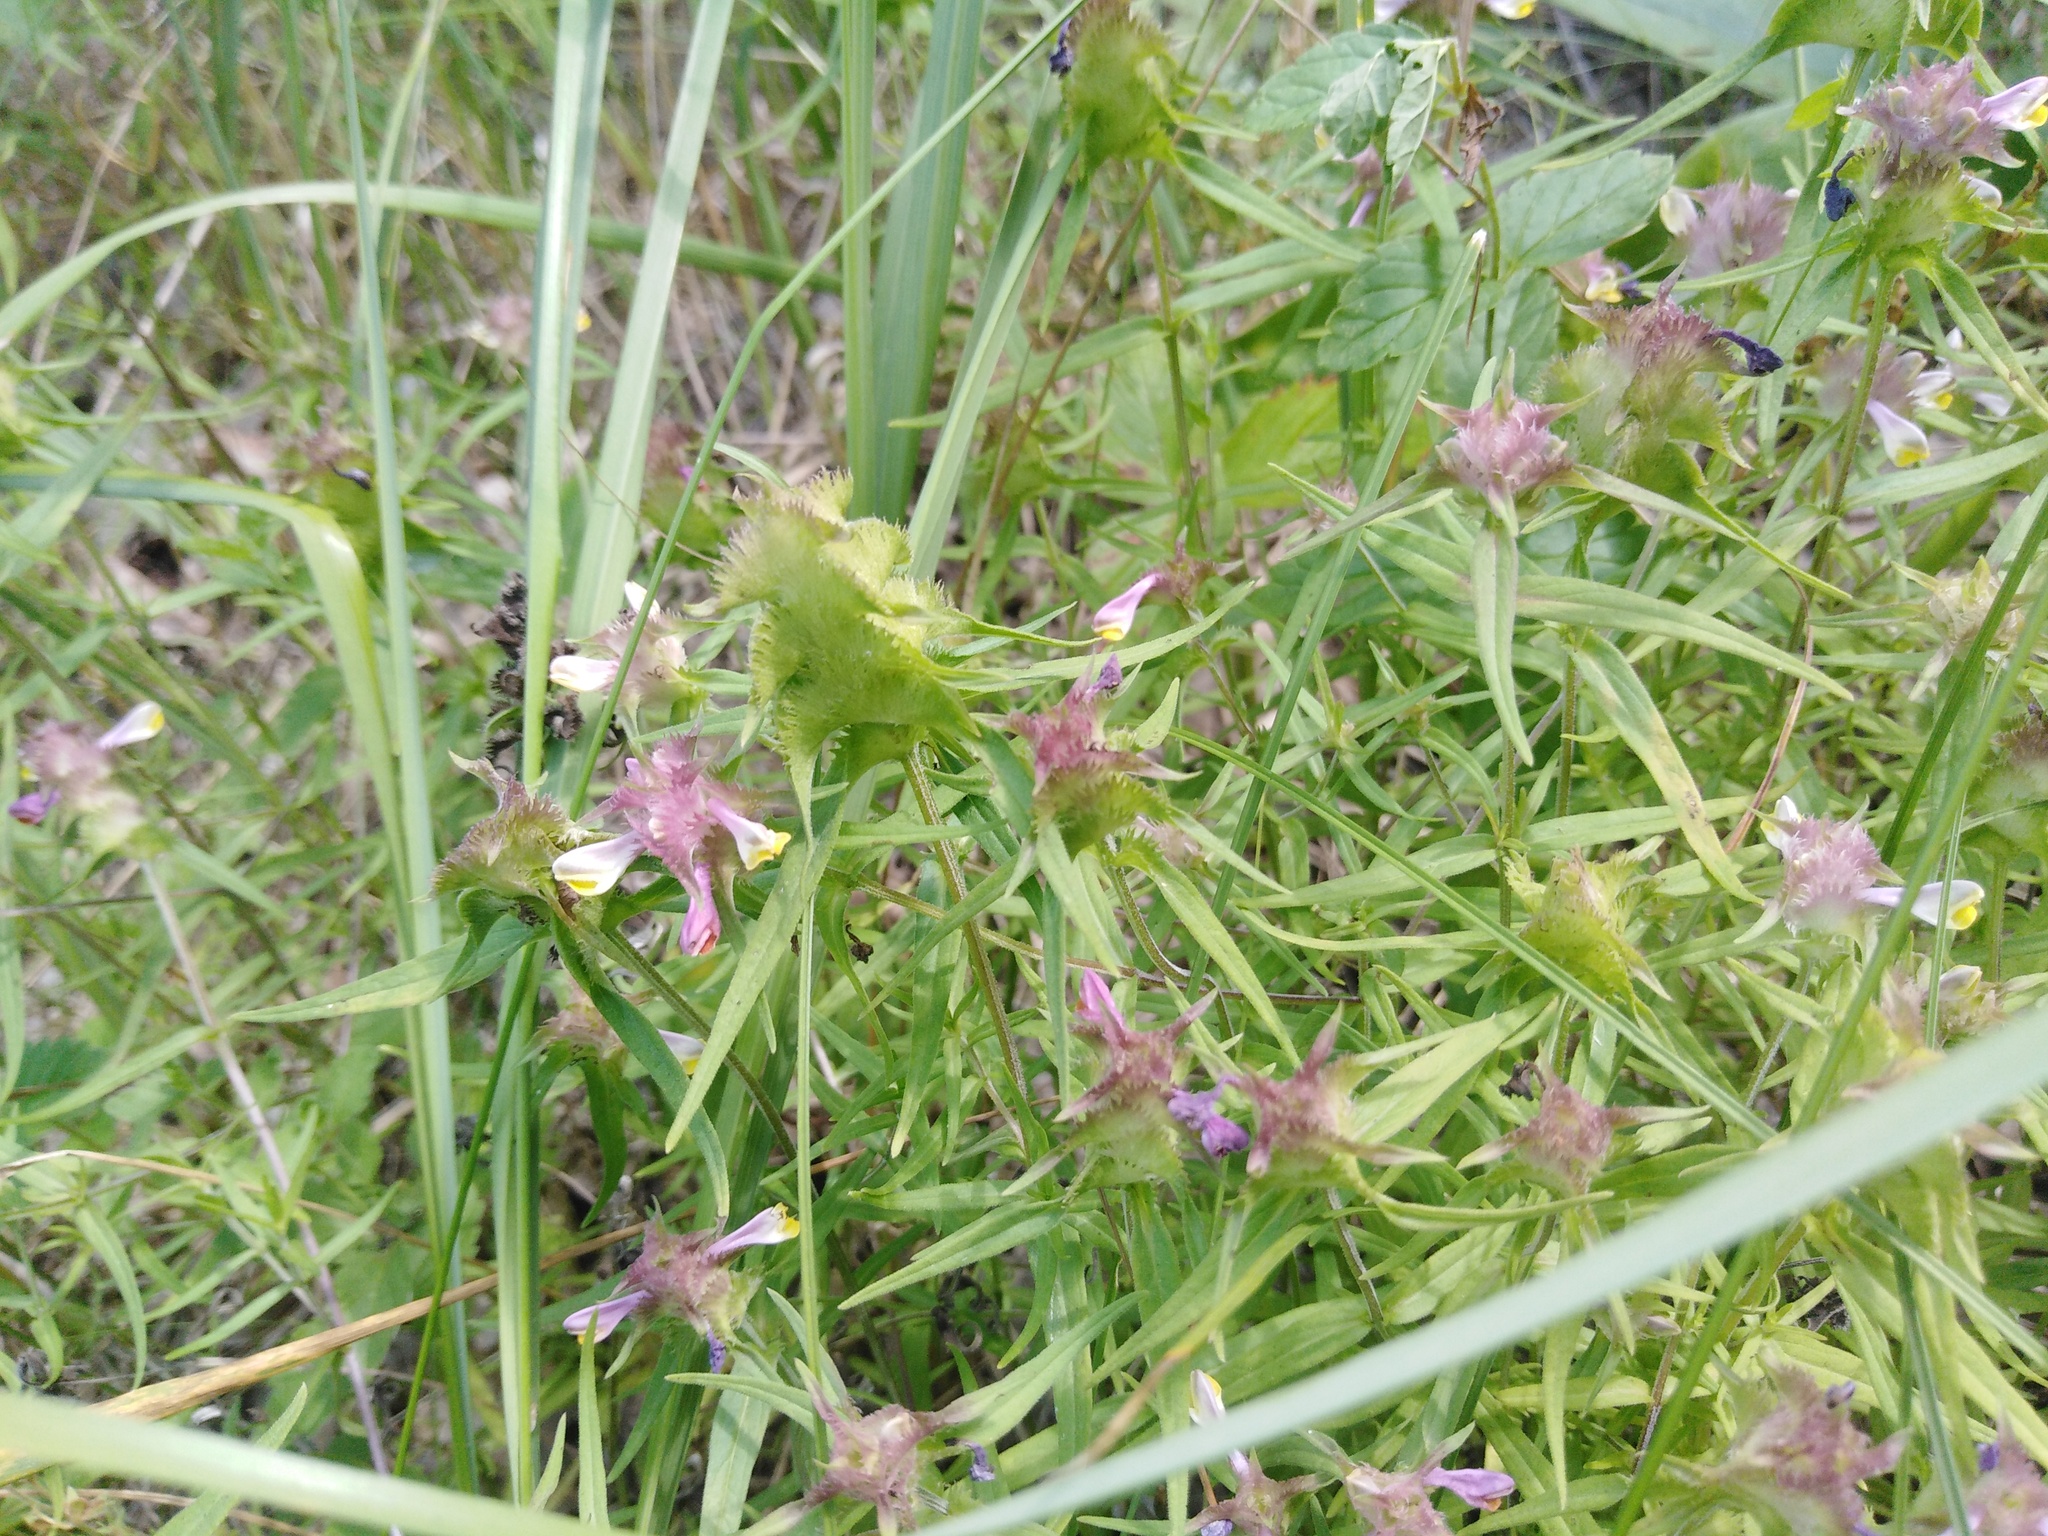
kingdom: Plantae
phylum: Tracheophyta
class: Magnoliopsida
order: Lamiales
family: Orobanchaceae
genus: Melampyrum
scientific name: Melampyrum cristatum
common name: Crested cow-wheat
